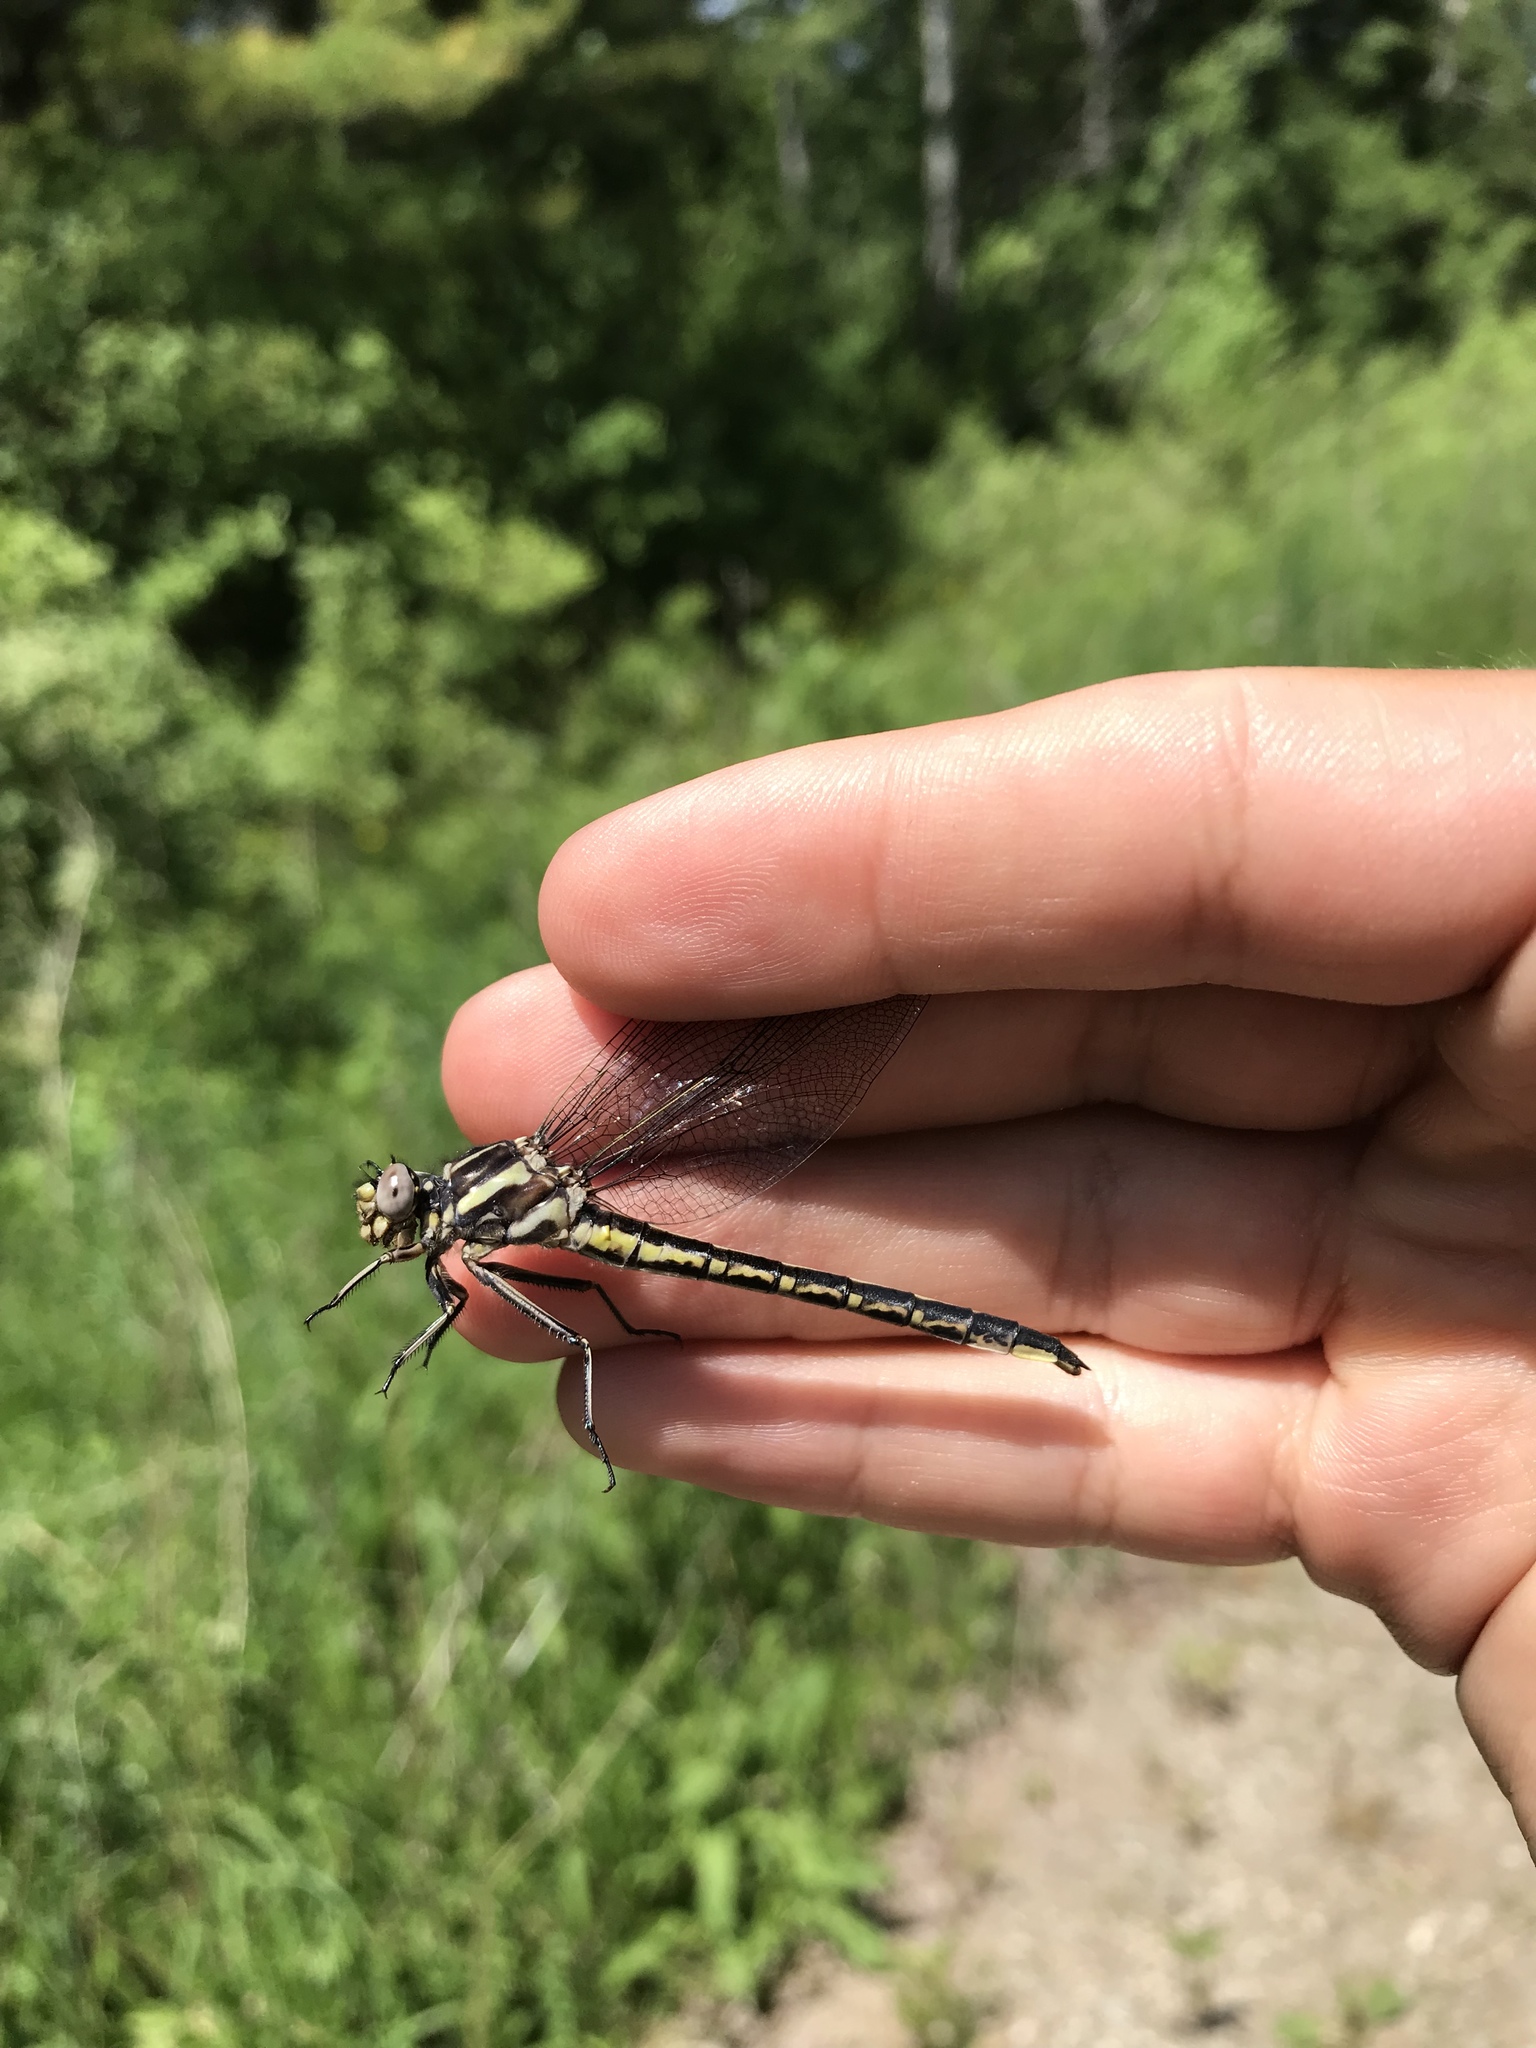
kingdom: Animalia
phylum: Arthropoda
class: Insecta
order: Odonata
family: Gomphidae
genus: Phanogomphus
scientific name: Phanogomphus spicatus
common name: Dusky clubtail
